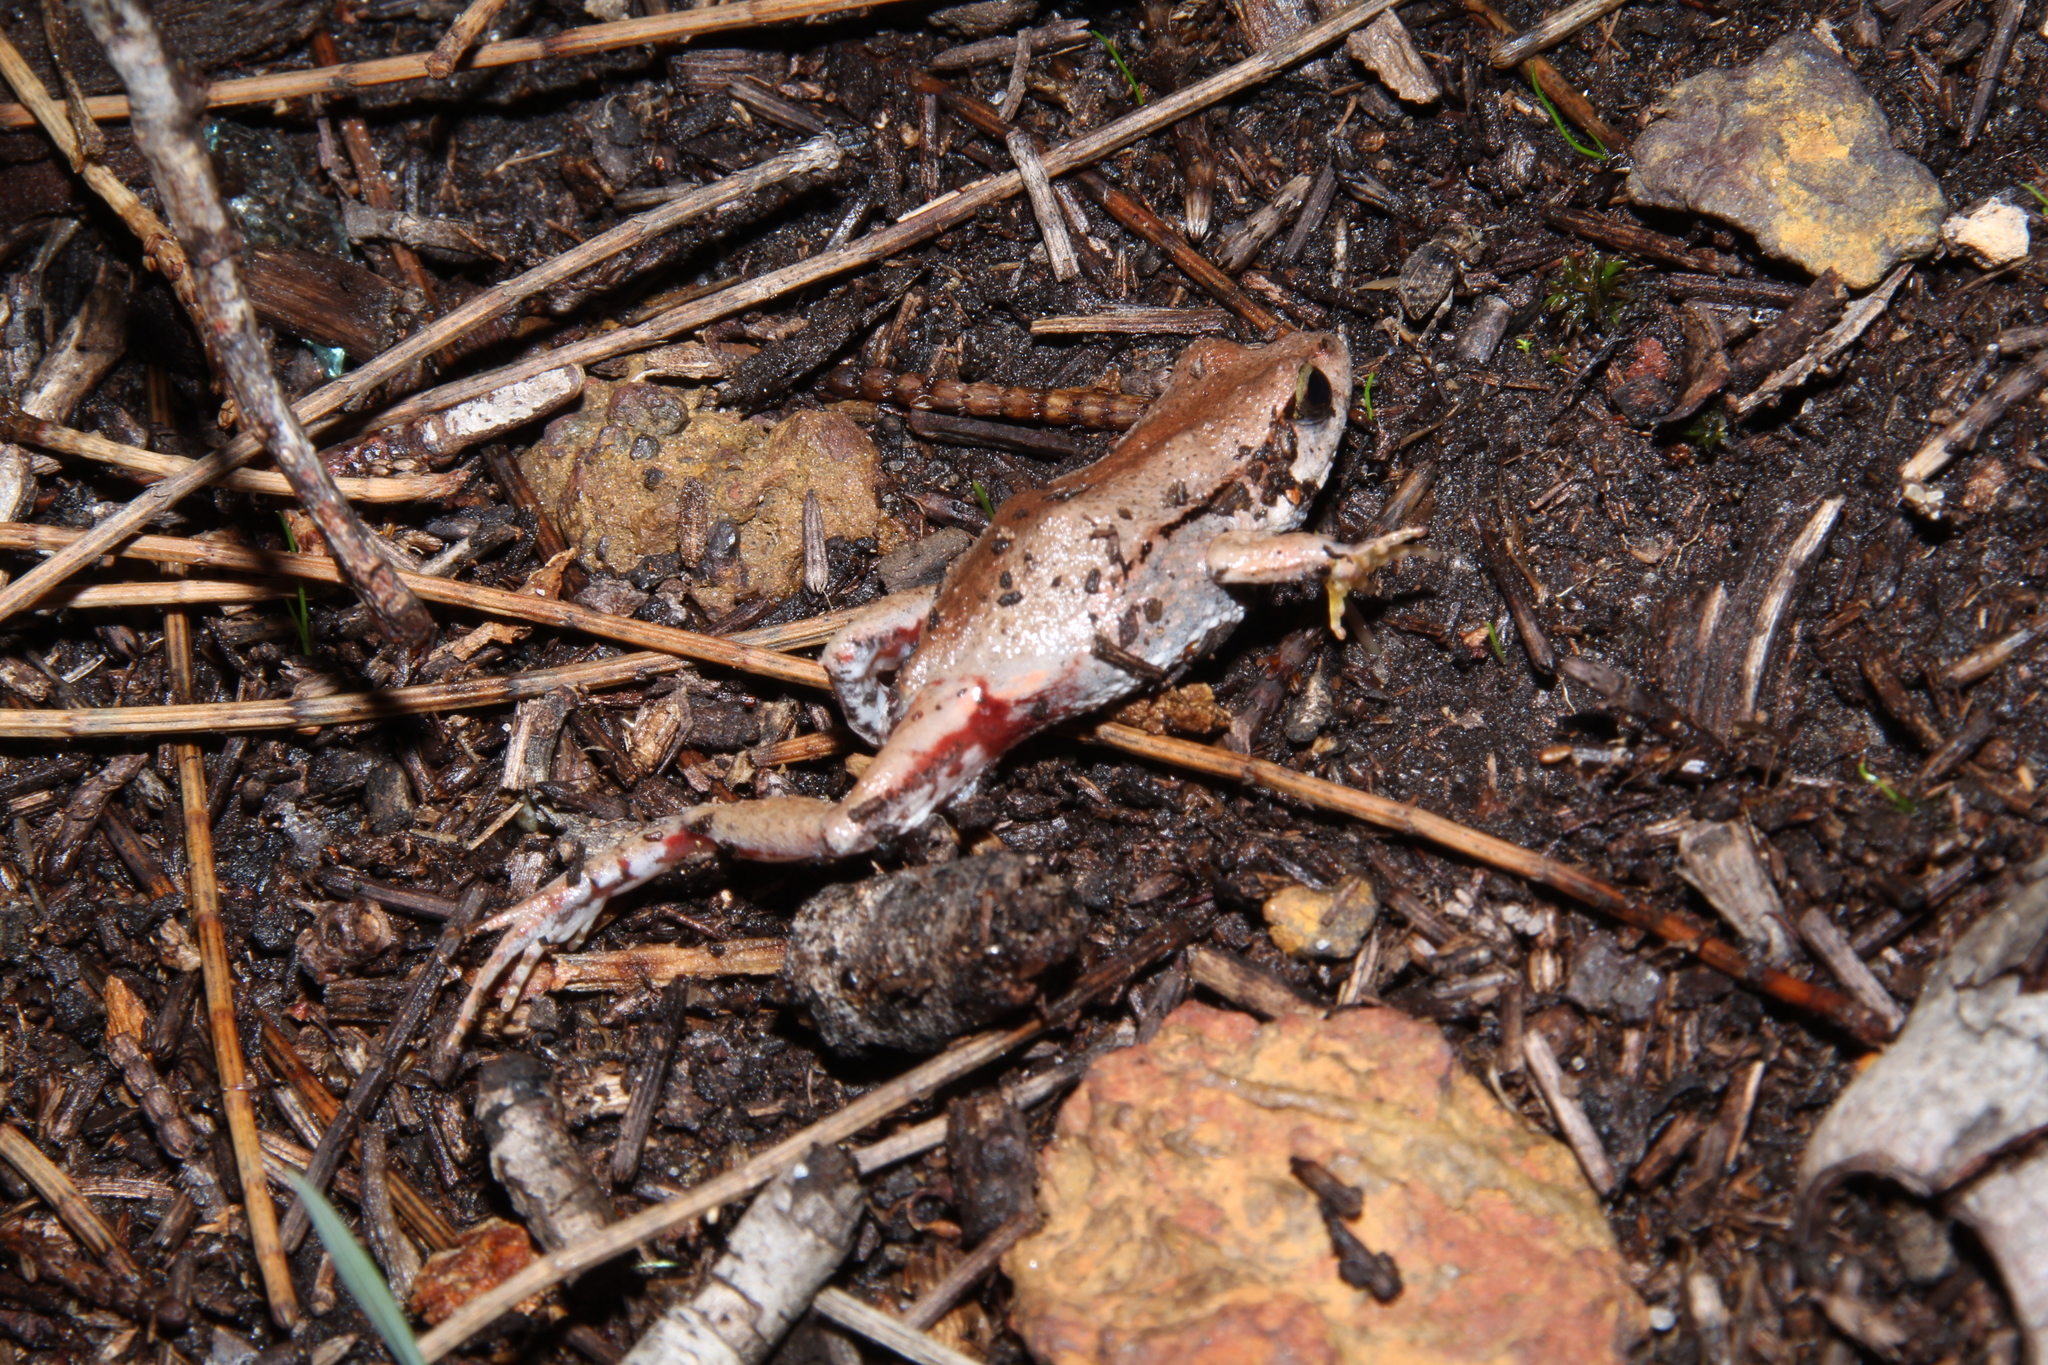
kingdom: Animalia
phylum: Chordata
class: Amphibia
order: Anura
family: Myobatrachidae
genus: Crinia
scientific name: Crinia georgiana
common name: Quacking frog
